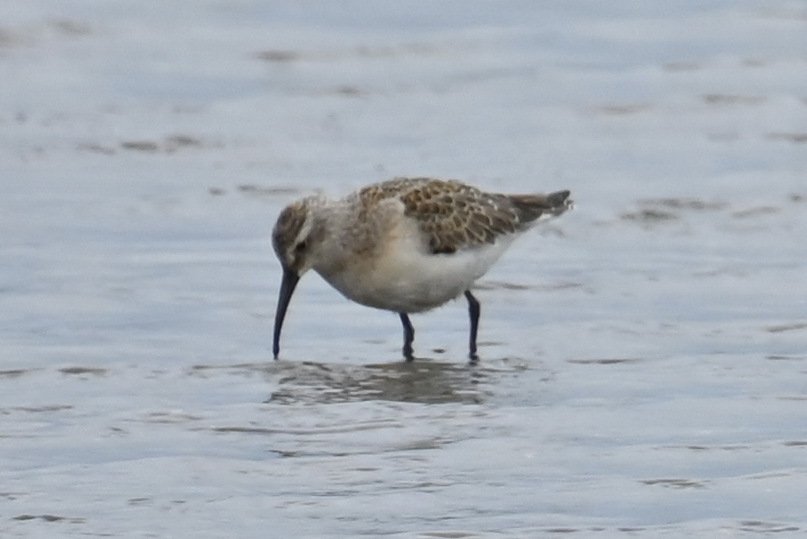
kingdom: Animalia
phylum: Chordata
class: Aves
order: Charadriiformes
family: Scolopacidae
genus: Calidris
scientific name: Calidris ferruginea
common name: Curlew sandpiper
